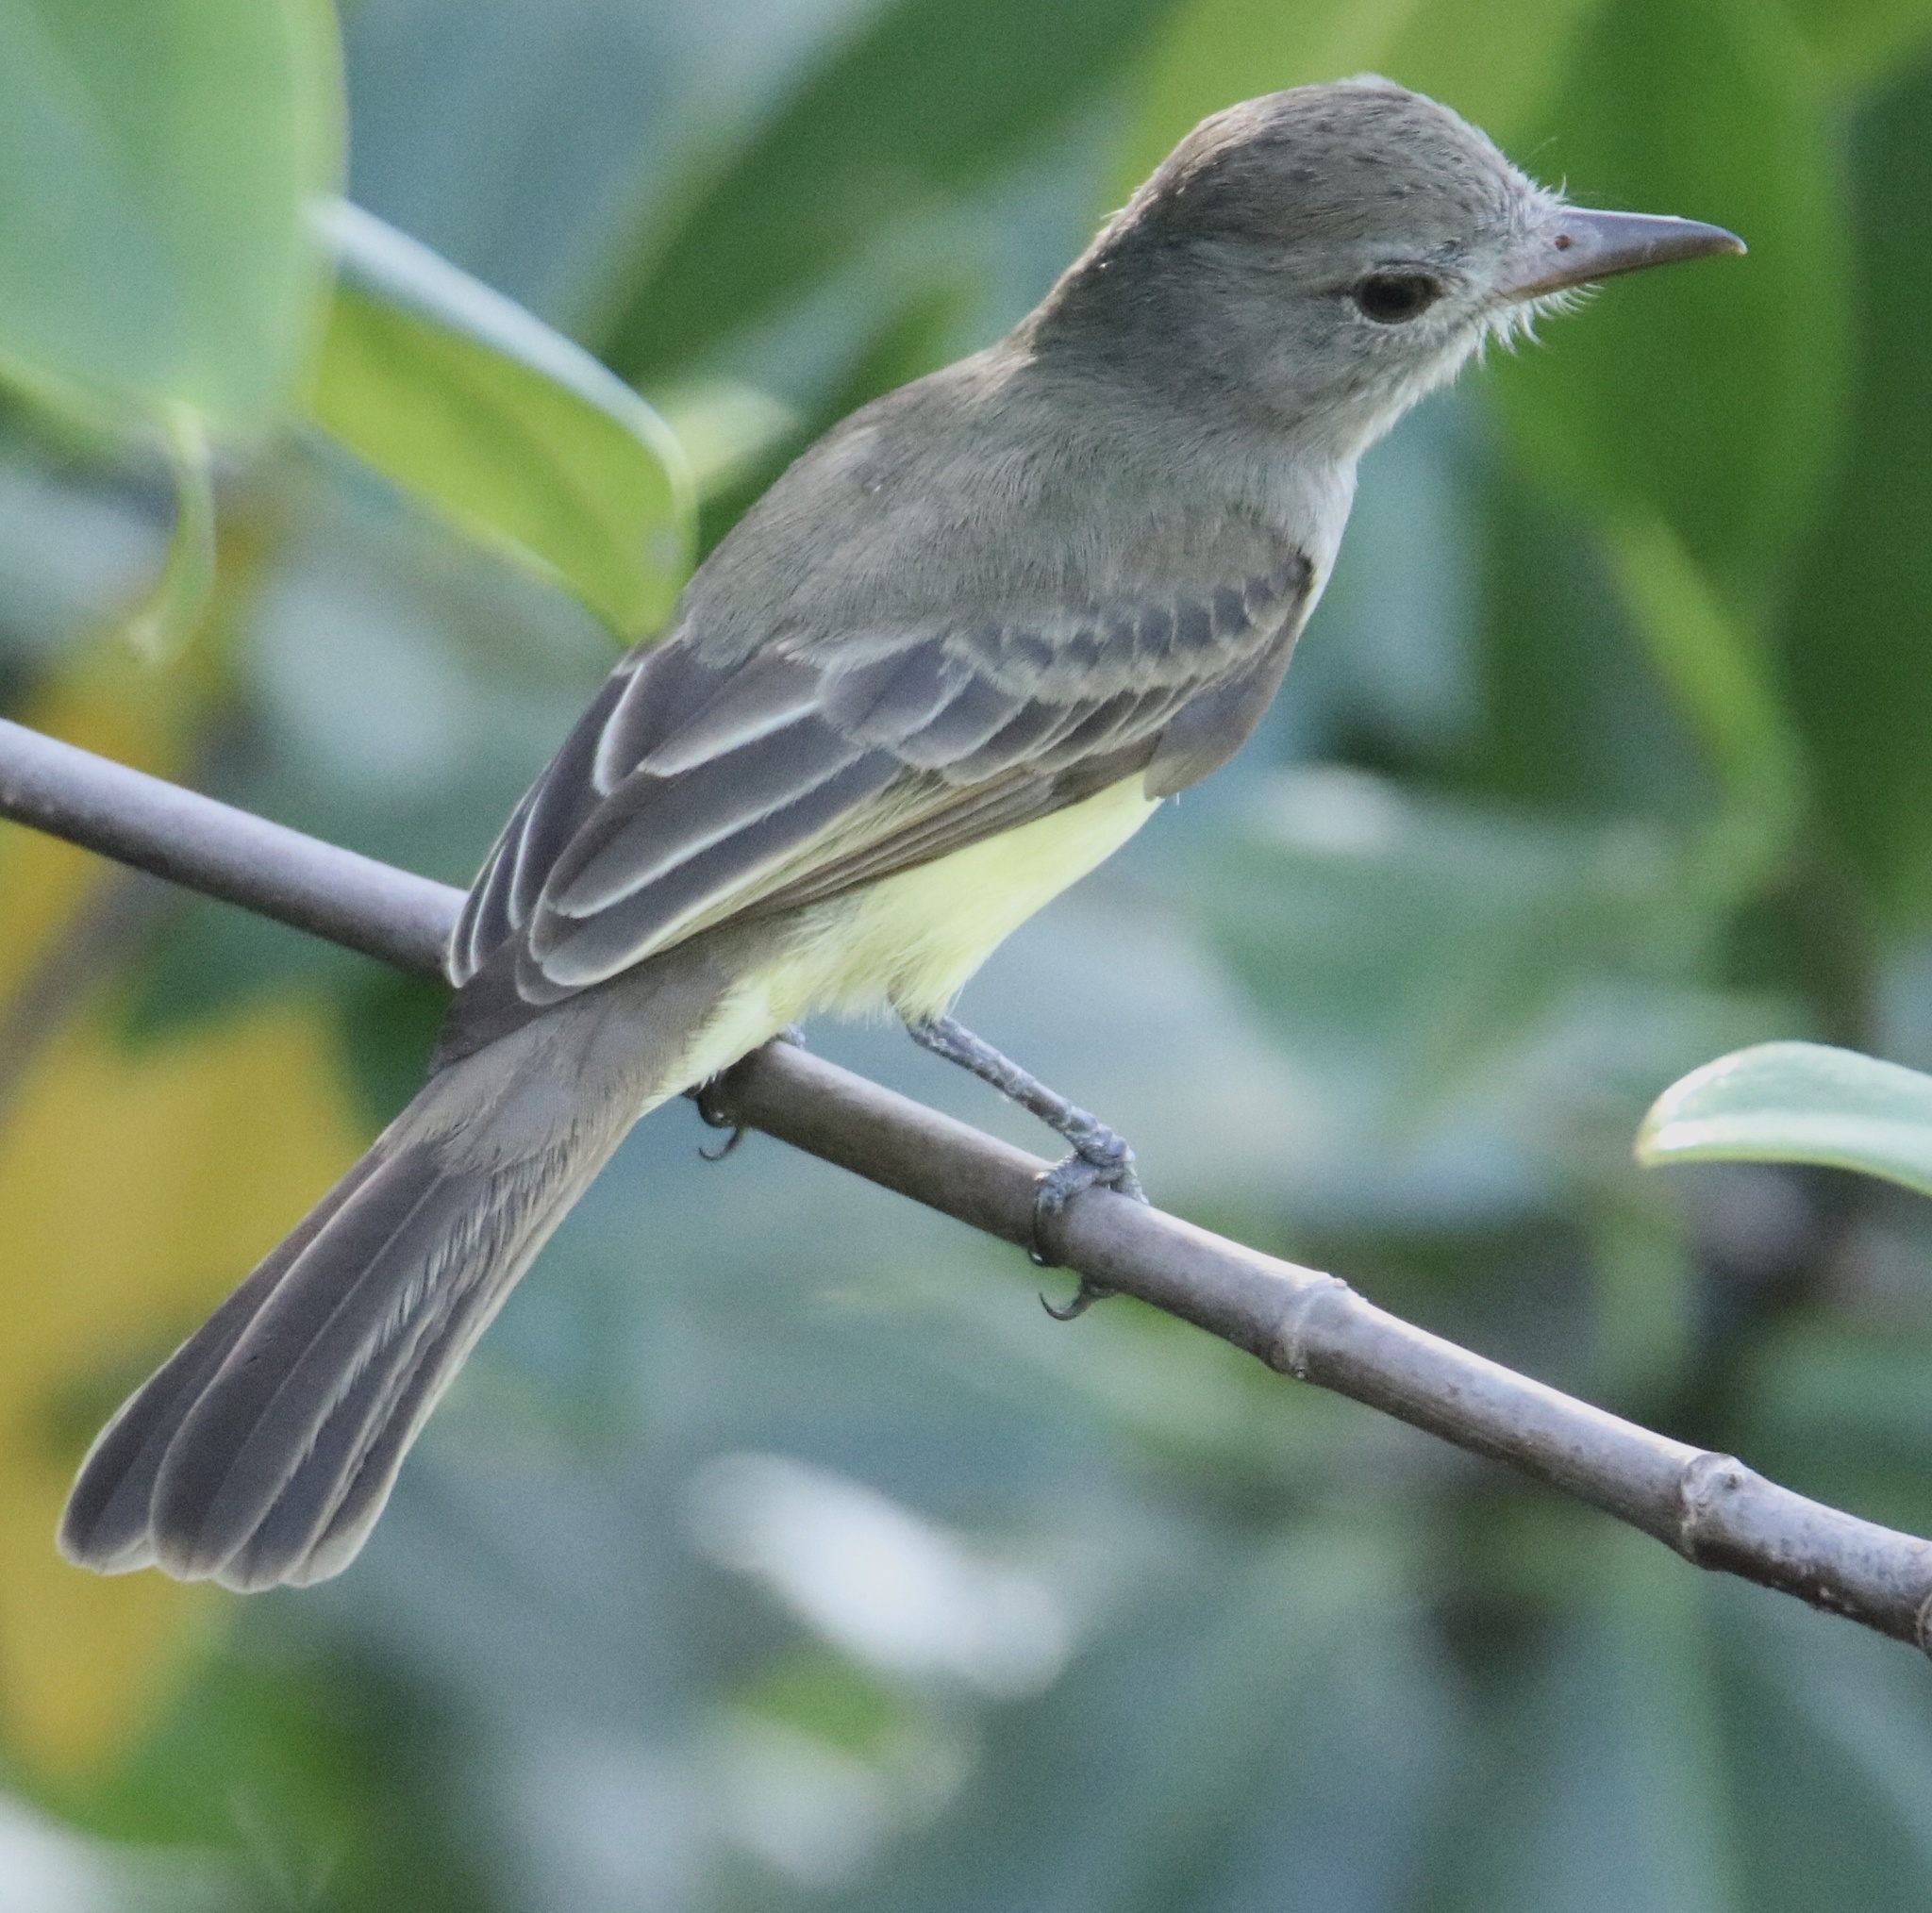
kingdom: Animalia
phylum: Chordata
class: Aves
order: Passeriformes
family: Tyrannidae
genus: Myiarchus
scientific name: Myiarchus panamensis
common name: Panama flycatcher
